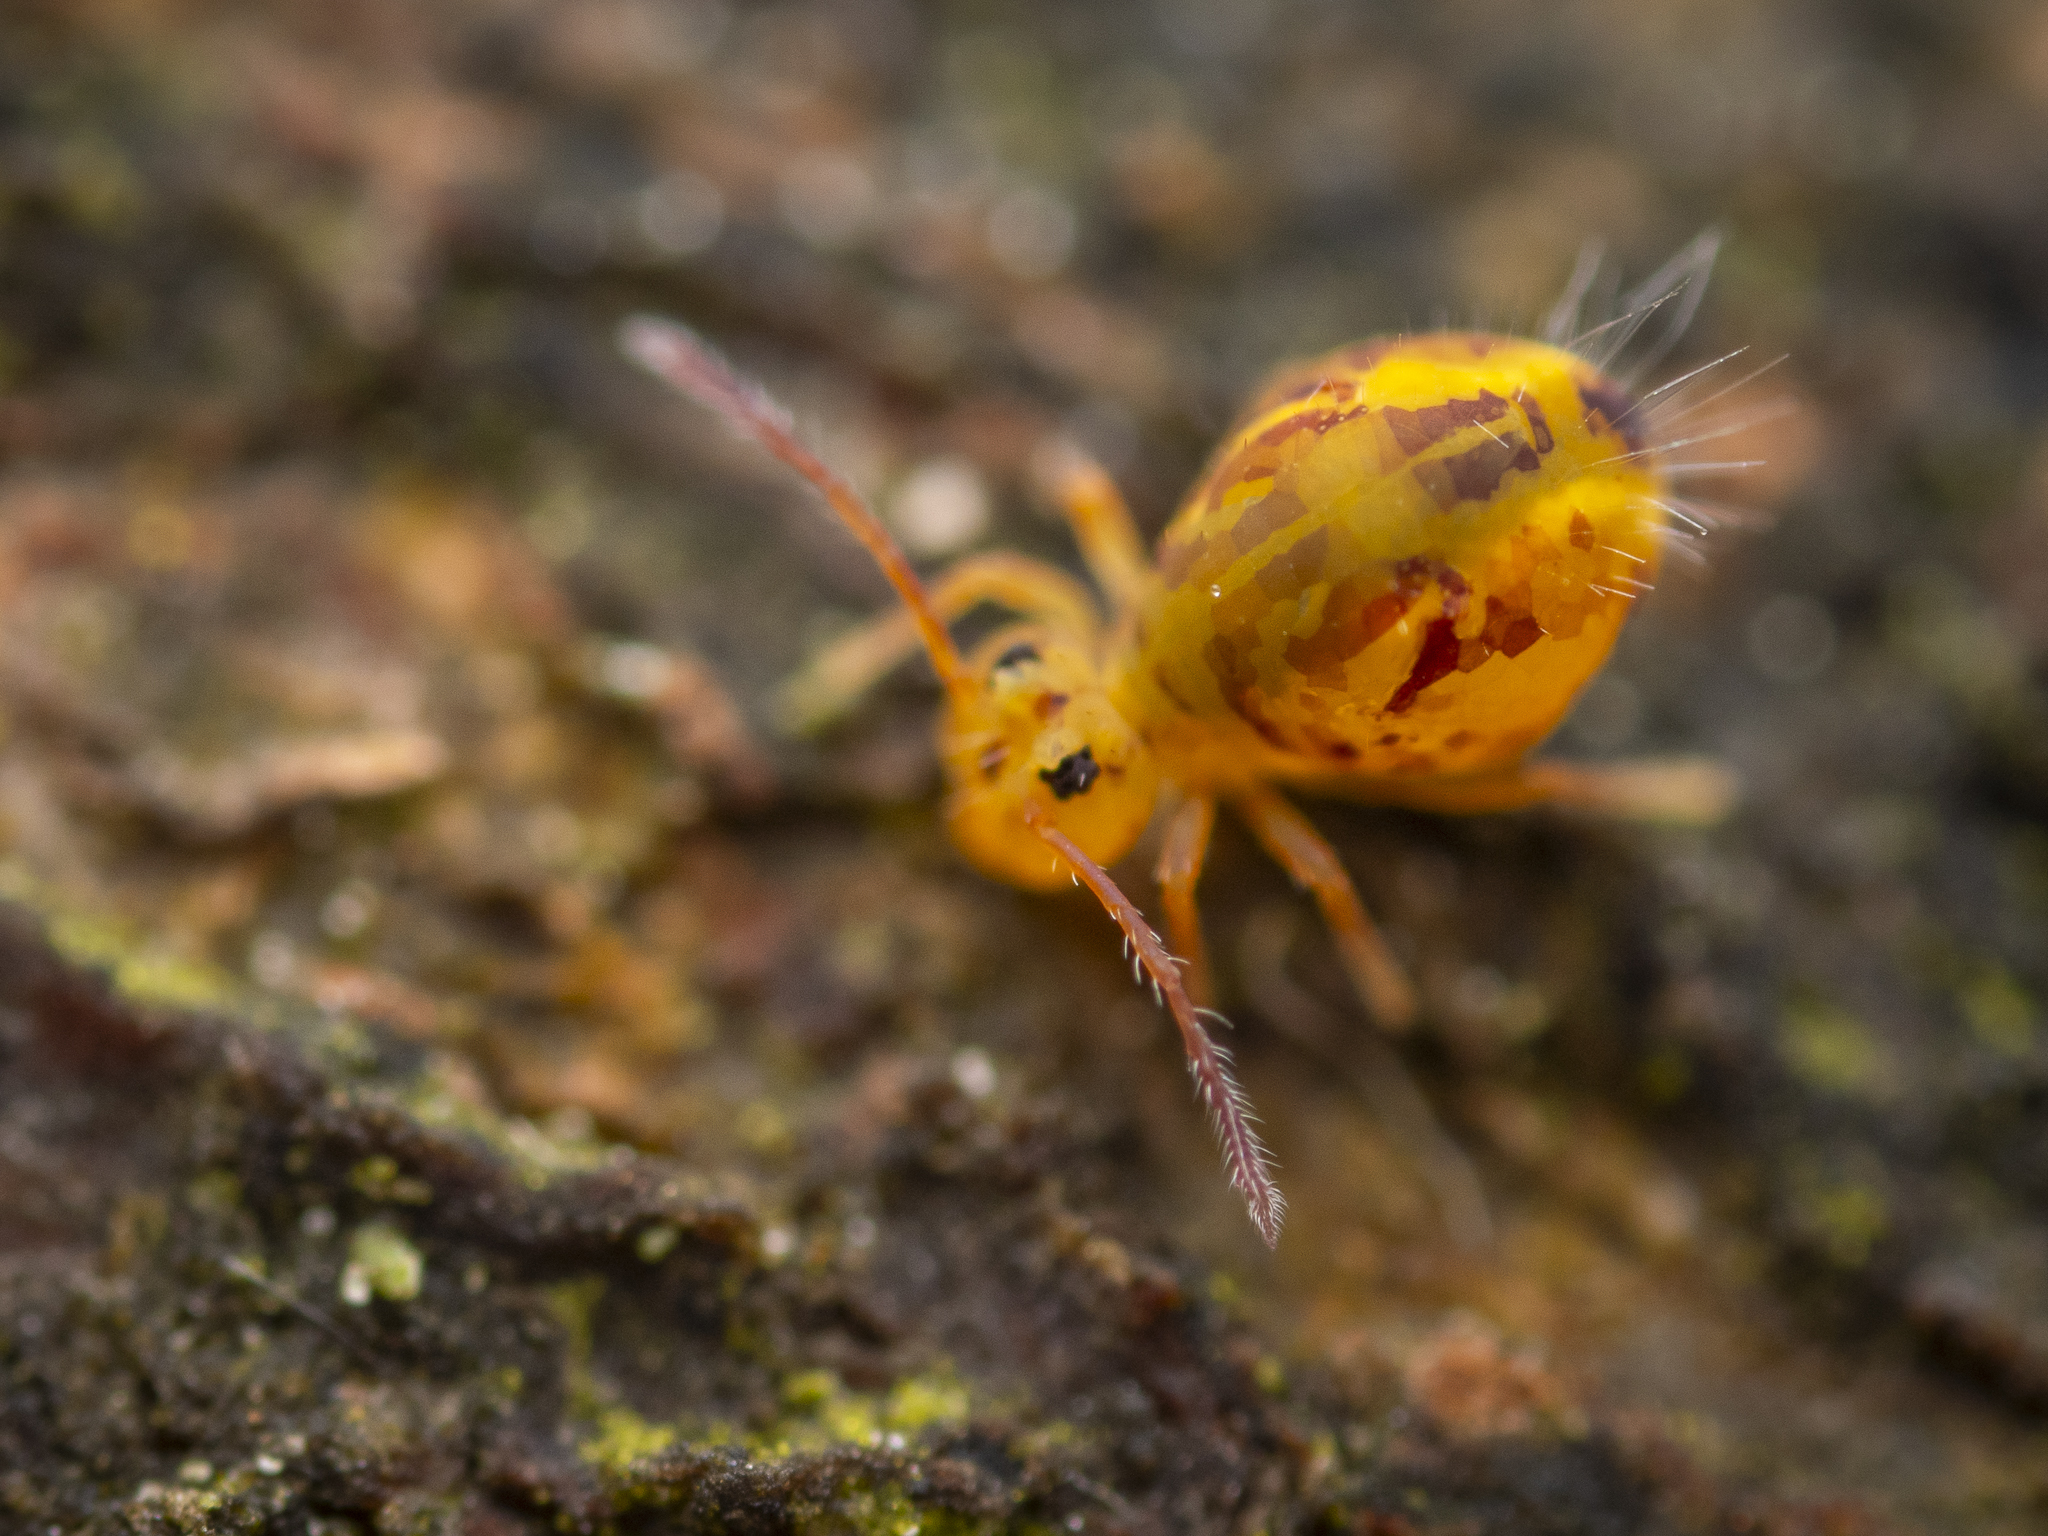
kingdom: Animalia
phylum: Arthropoda
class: Collembola
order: Symphypleona
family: Dicyrtomidae
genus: Dicyrtomina
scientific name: Dicyrtomina ornata
